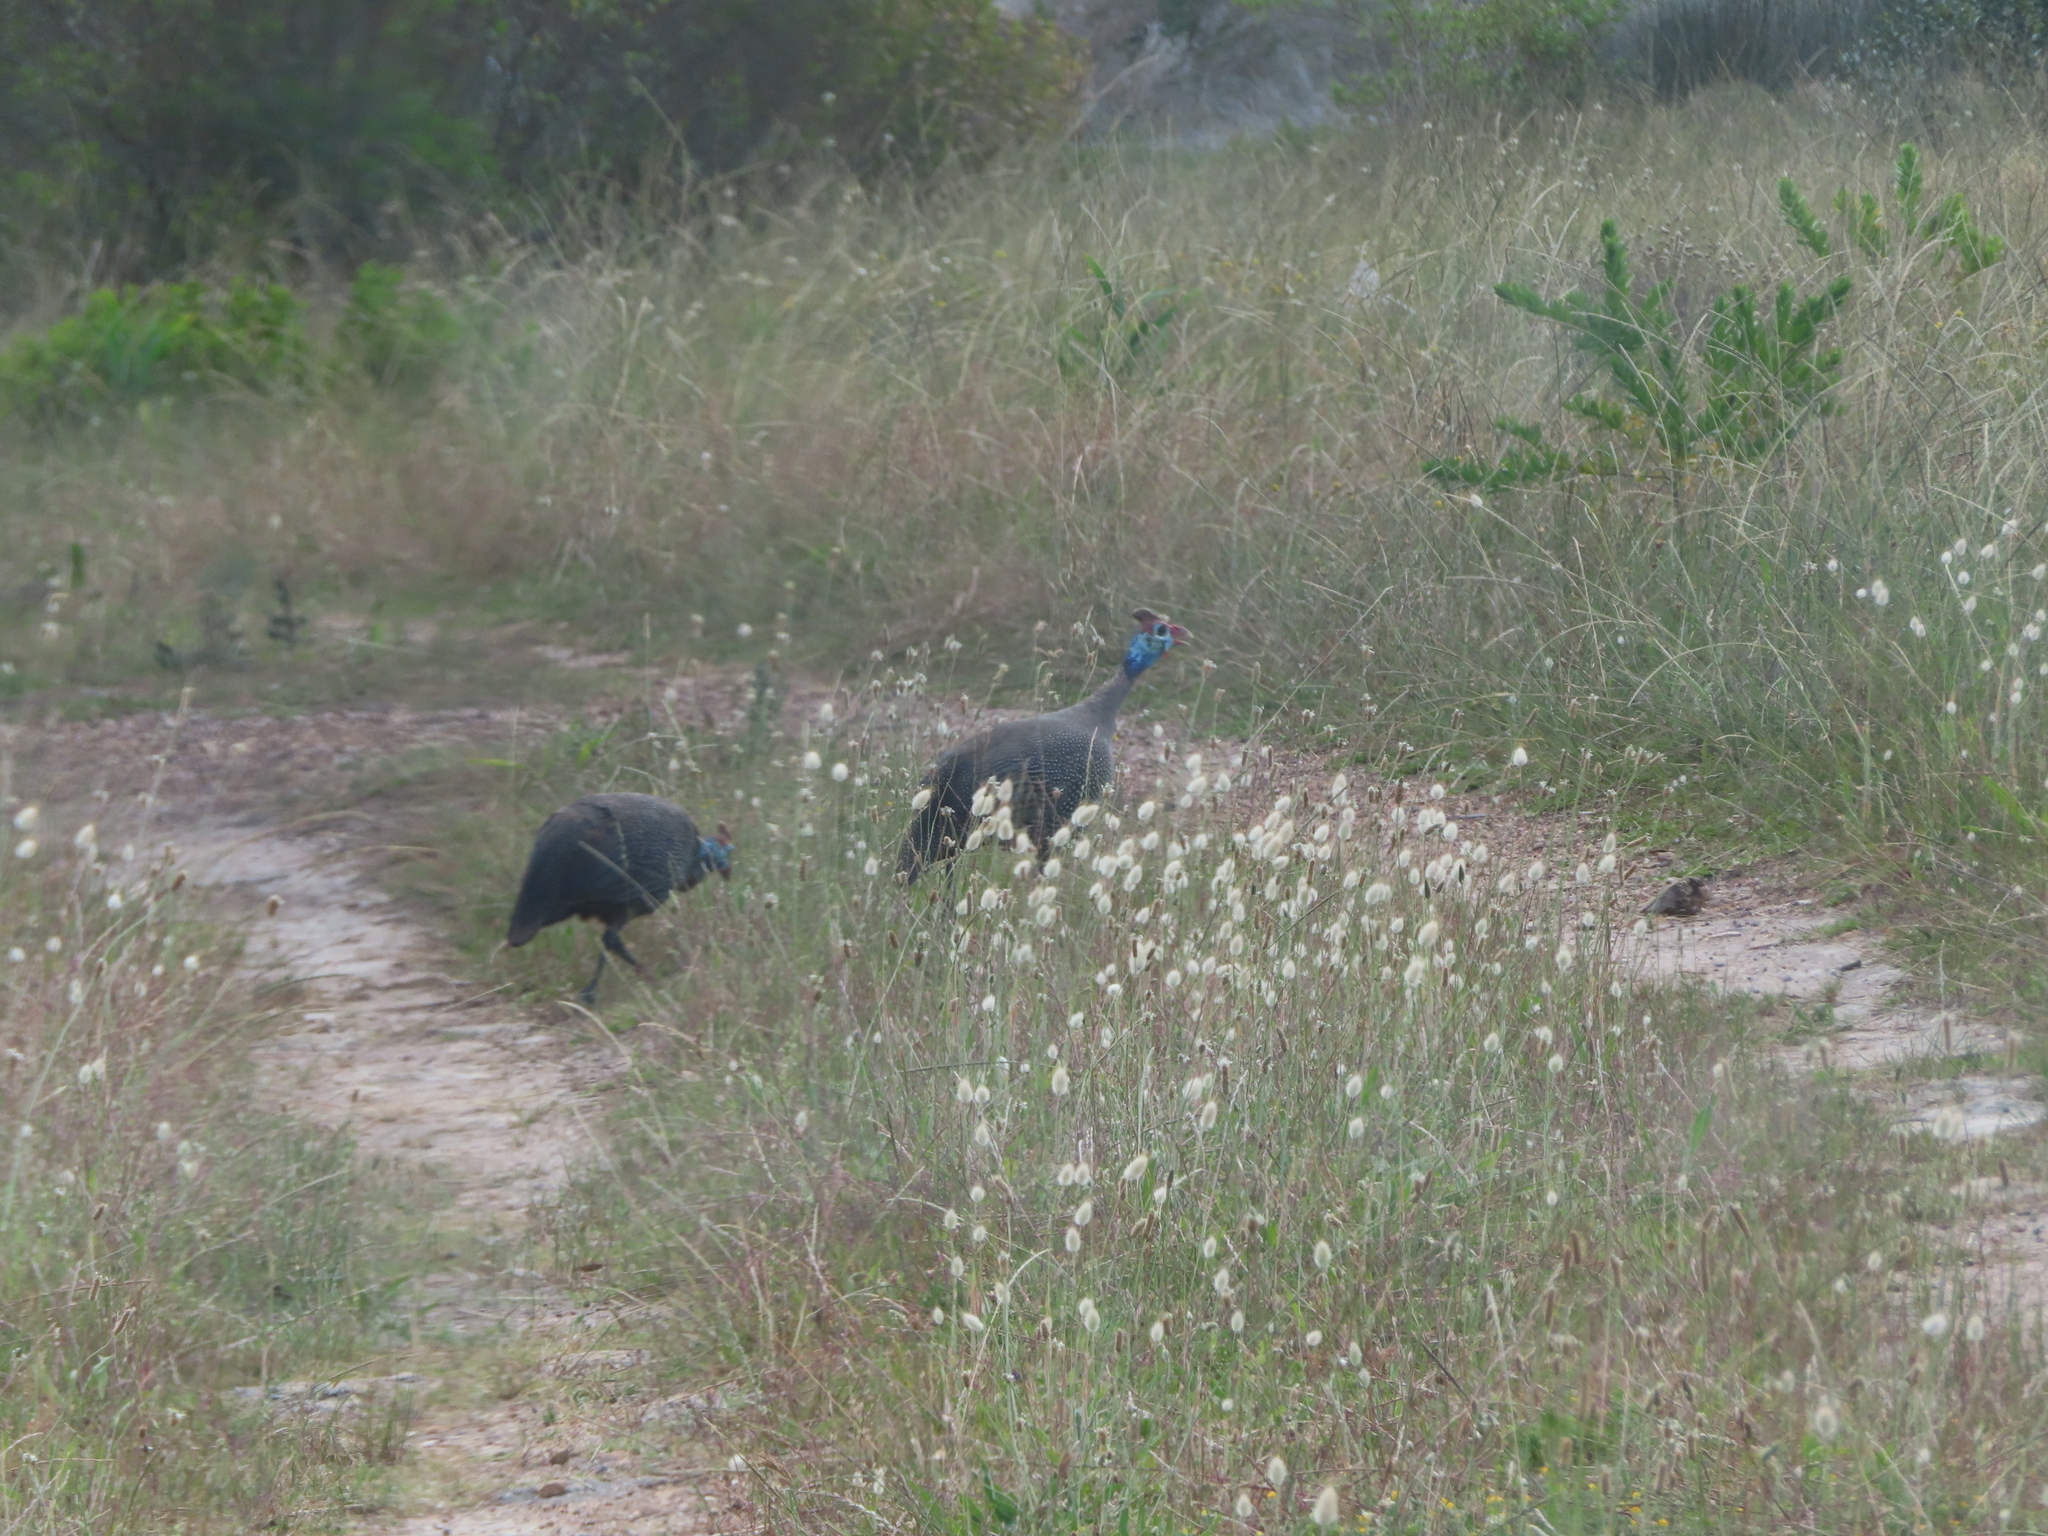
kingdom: Animalia
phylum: Chordata
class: Aves
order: Galliformes
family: Numididae
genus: Numida
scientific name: Numida meleagris
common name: Helmeted guineafowl
